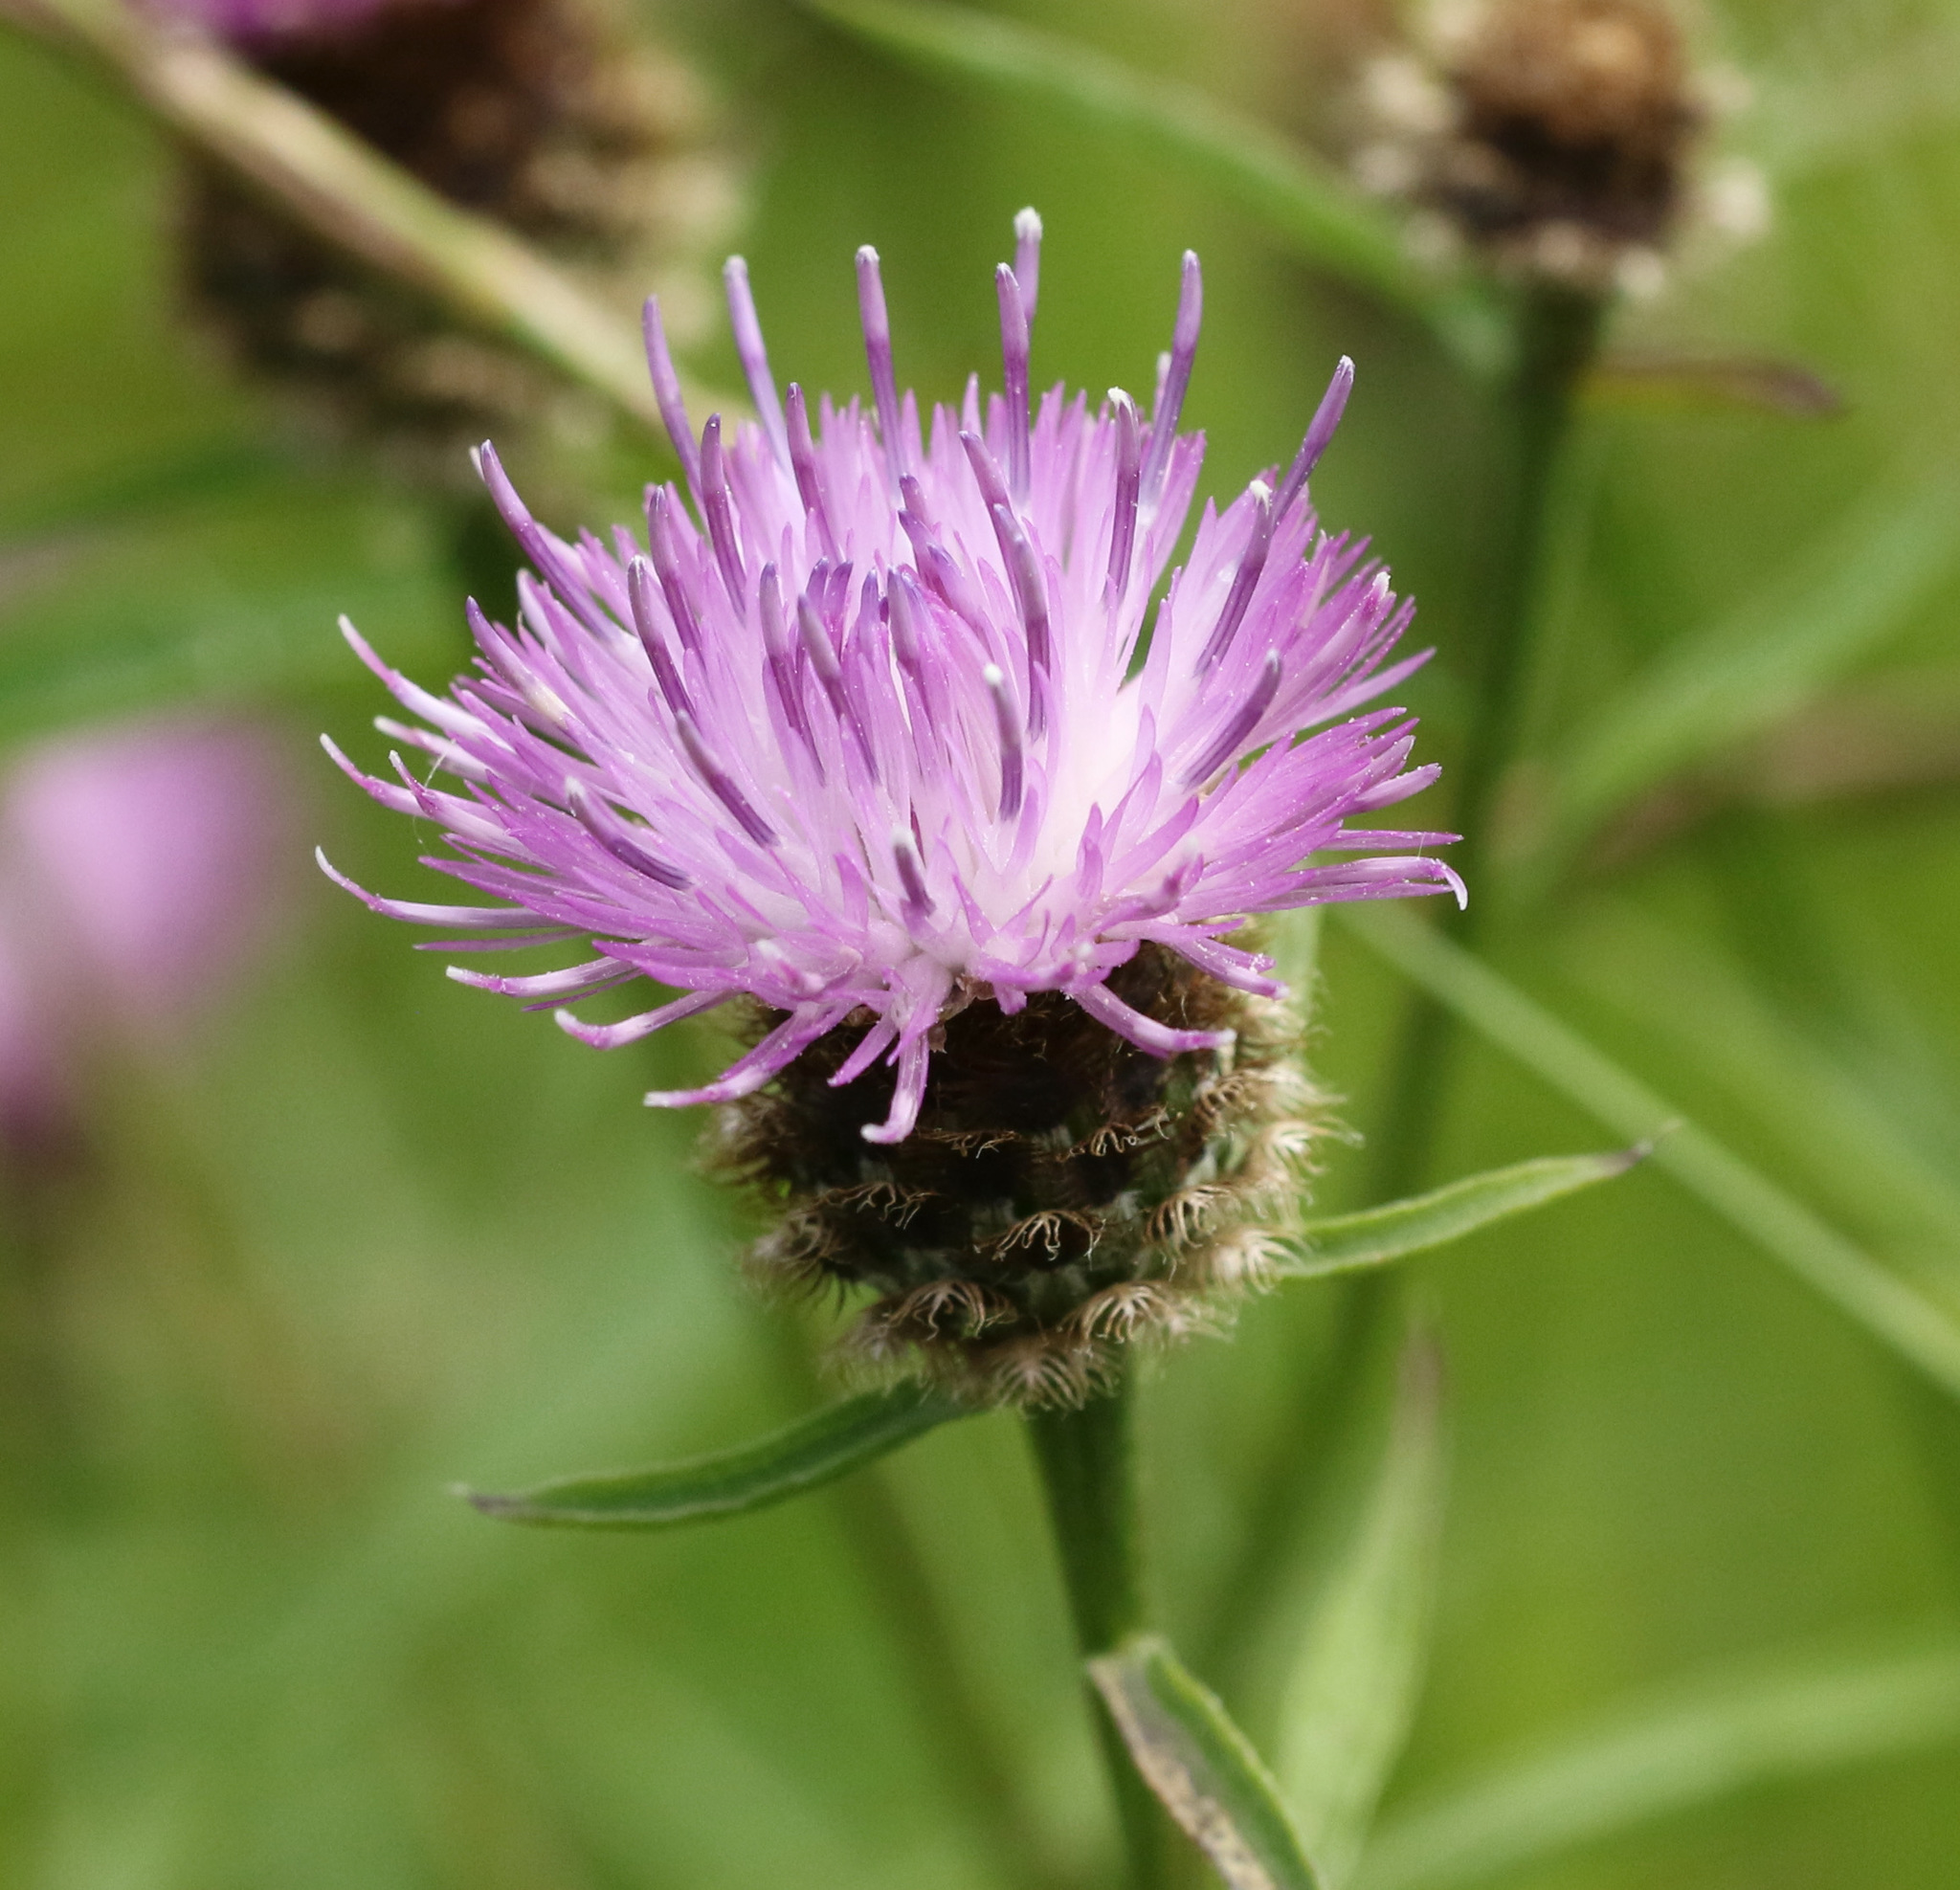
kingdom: Plantae
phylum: Tracheophyta
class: Magnoliopsida
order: Asterales
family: Asteraceae
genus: Centaurea
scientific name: Centaurea nigra
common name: Lesser knapweed
